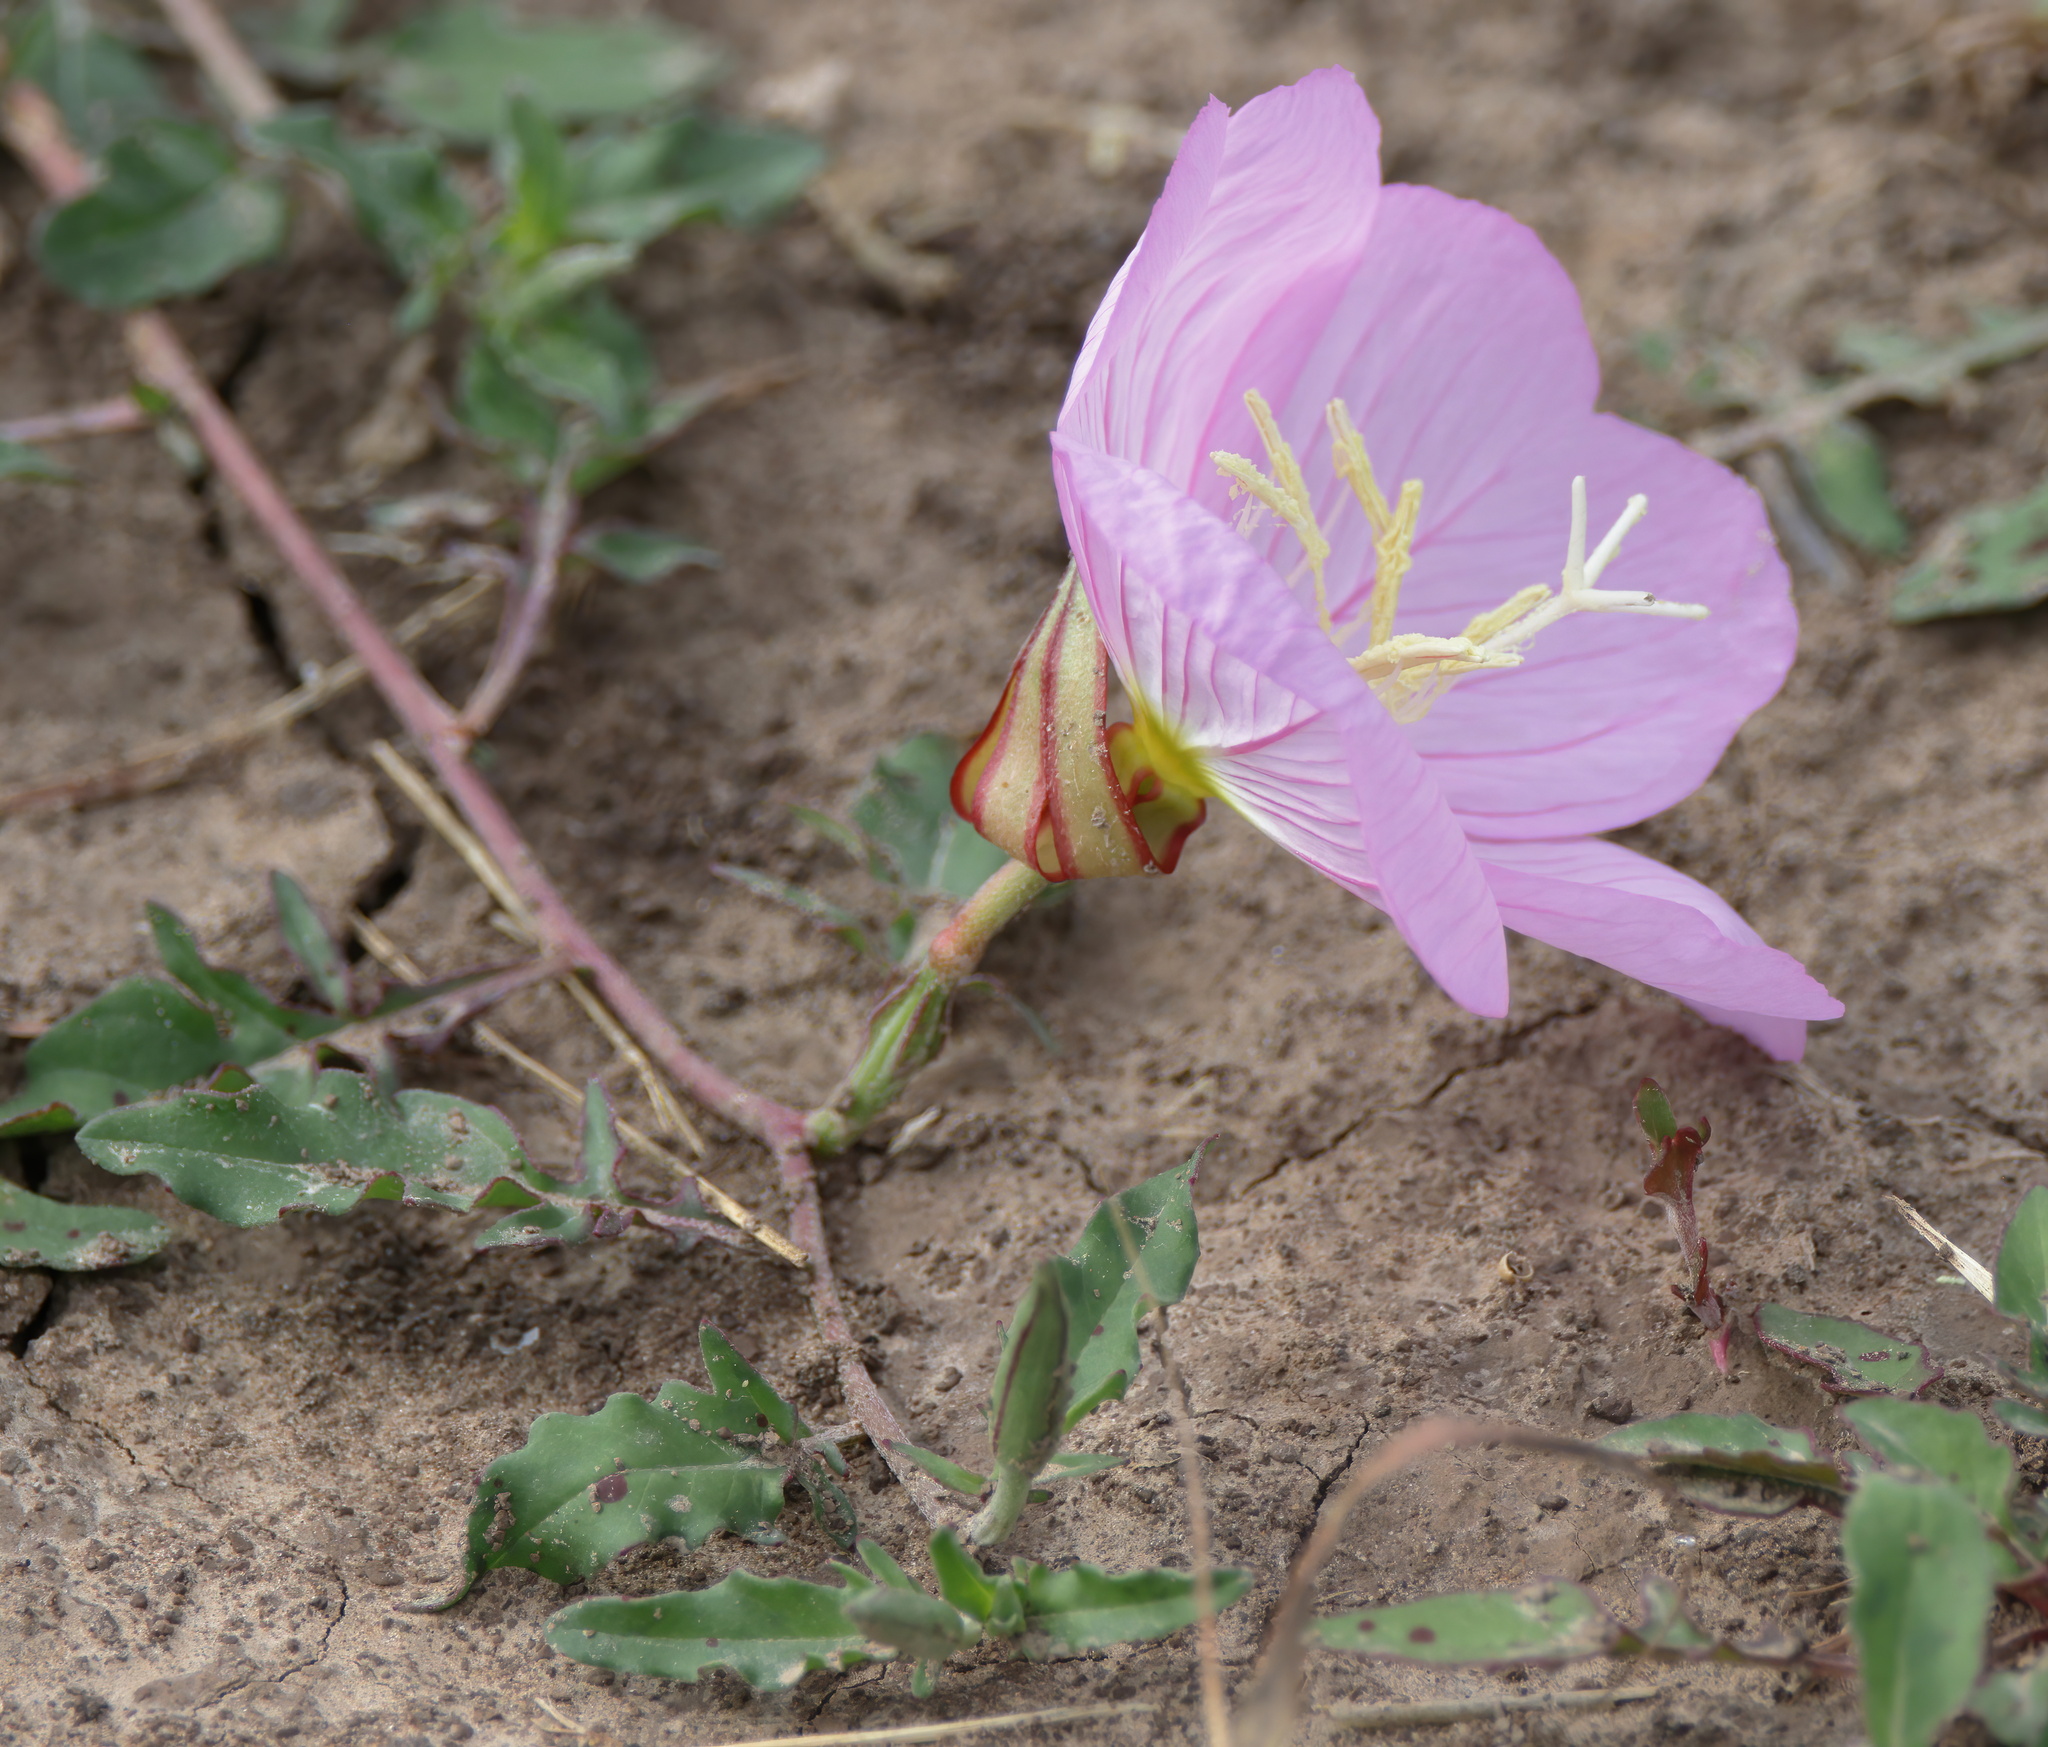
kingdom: Plantae
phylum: Tracheophyta
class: Magnoliopsida
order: Myrtales
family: Onagraceae
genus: Oenothera
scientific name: Oenothera speciosa
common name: White evening-primrose
